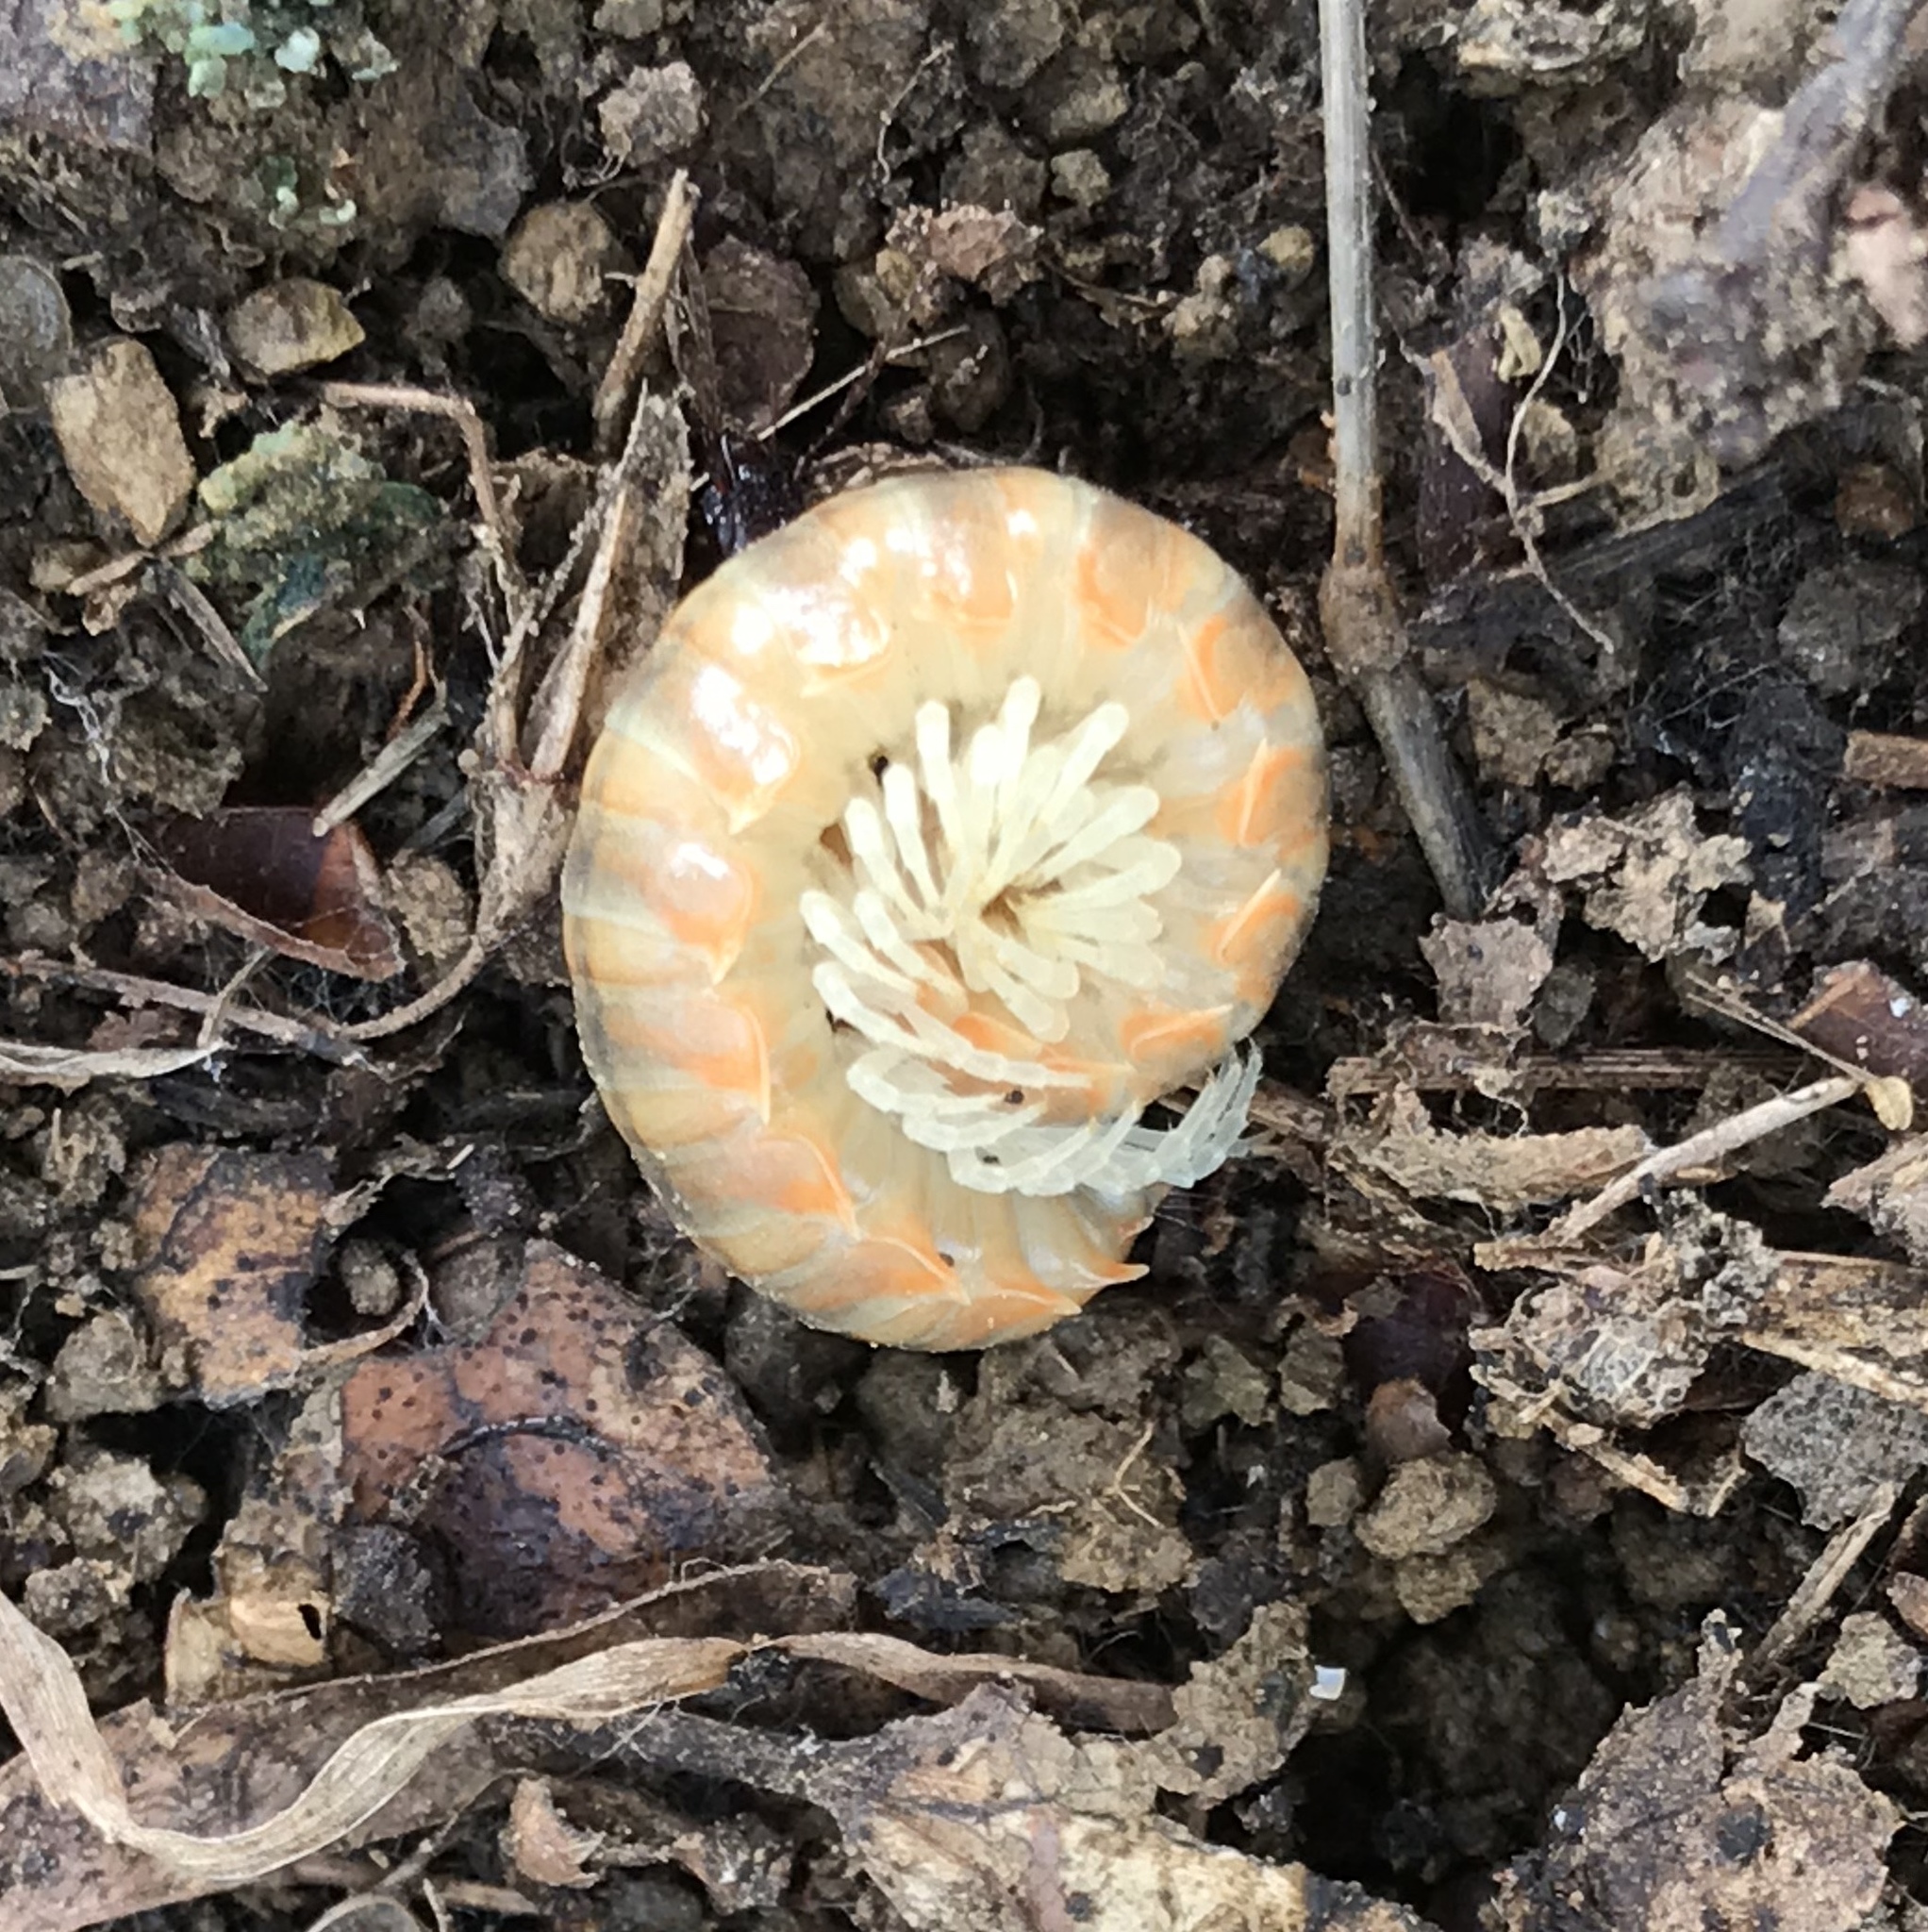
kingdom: Animalia
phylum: Arthropoda
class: Diplopoda
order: Polydesmida
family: Xystodesmidae
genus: Xystocheir
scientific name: Xystocheir dissecta
